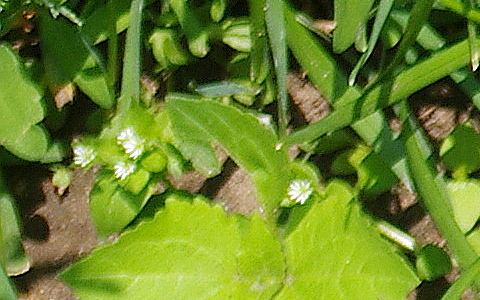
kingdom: Plantae
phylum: Tracheophyta
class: Magnoliopsida
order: Caryophyllales
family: Caryophyllaceae
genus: Stellaria
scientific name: Stellaria media
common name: Common chickweed
